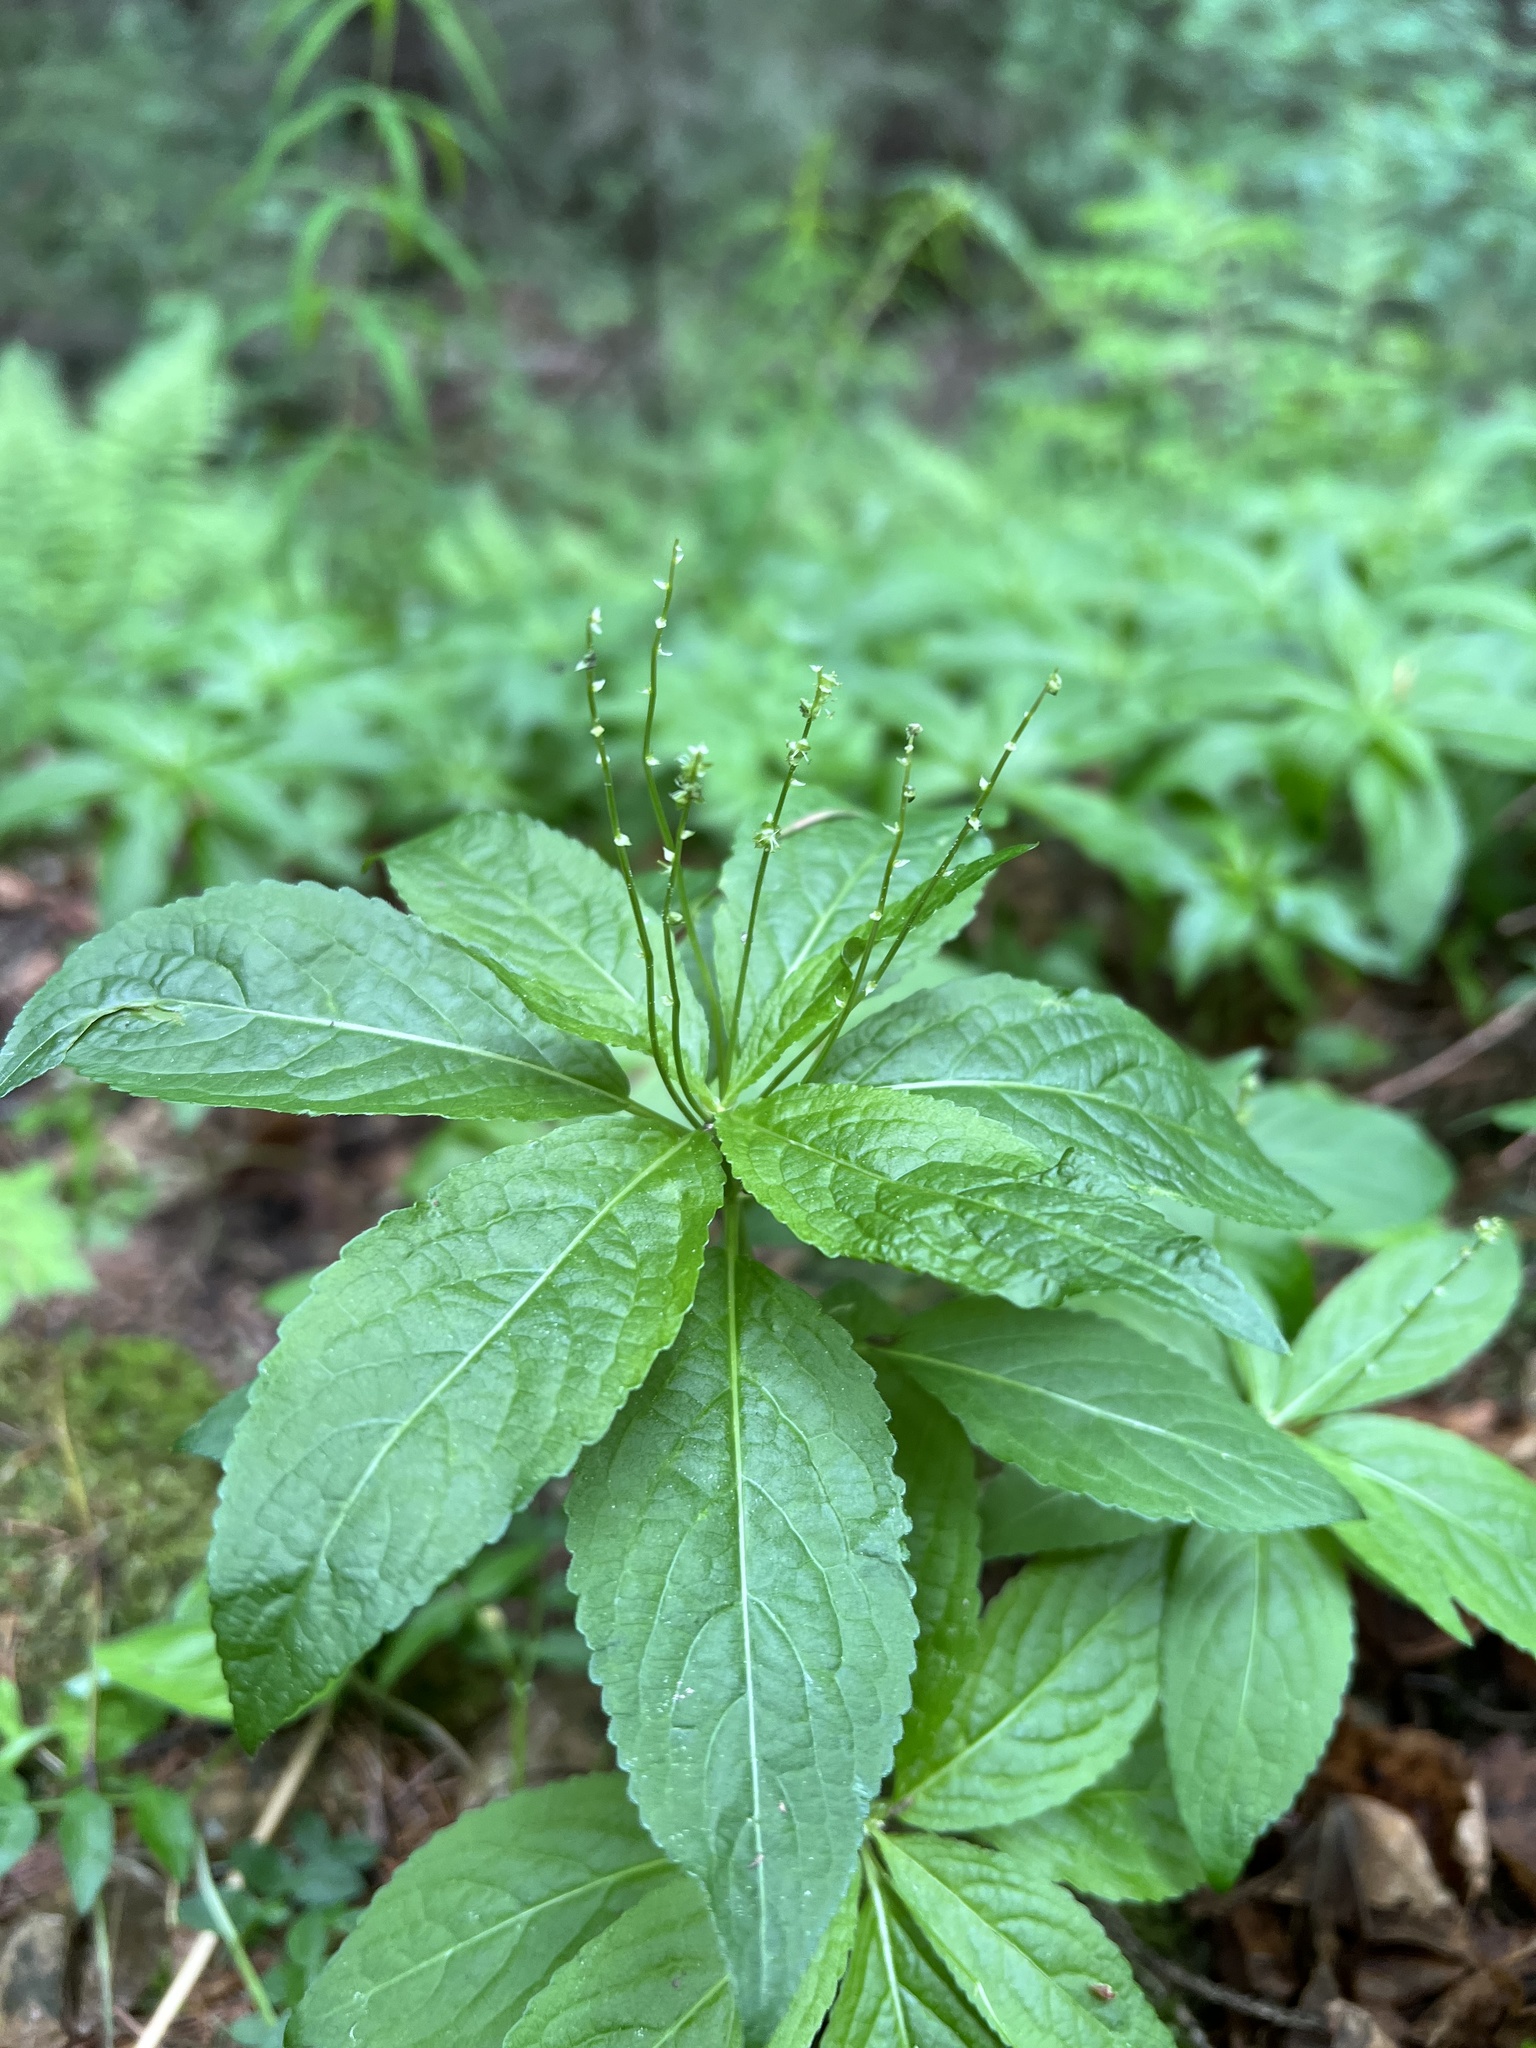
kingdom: Plantae
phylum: Tracheophyta
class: Magnoliopsida
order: Malpighiales
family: Euphorbiaceae
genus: Mercurialis
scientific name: Mercurialis perennis
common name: Dog mercury
